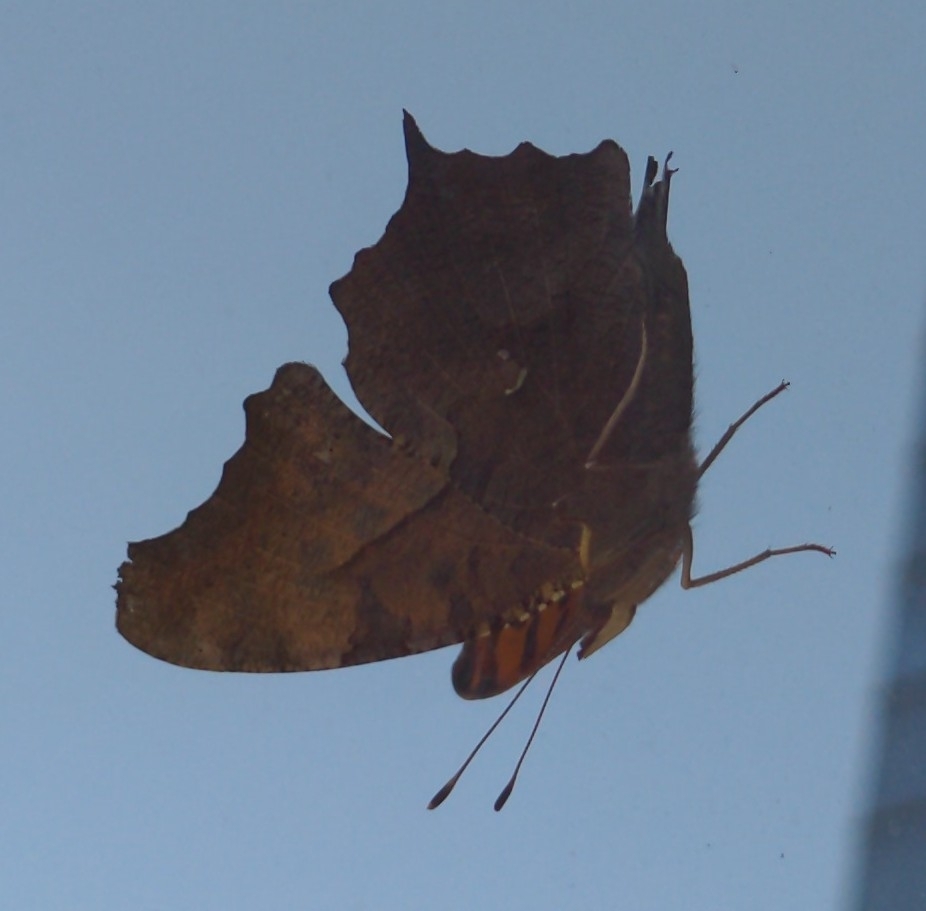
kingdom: Animalia
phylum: Arthropoda
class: Insecta
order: Lepidoptera
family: Nymphalidae
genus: Polygonia
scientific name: Polygonia interrogationis
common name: Question mark
